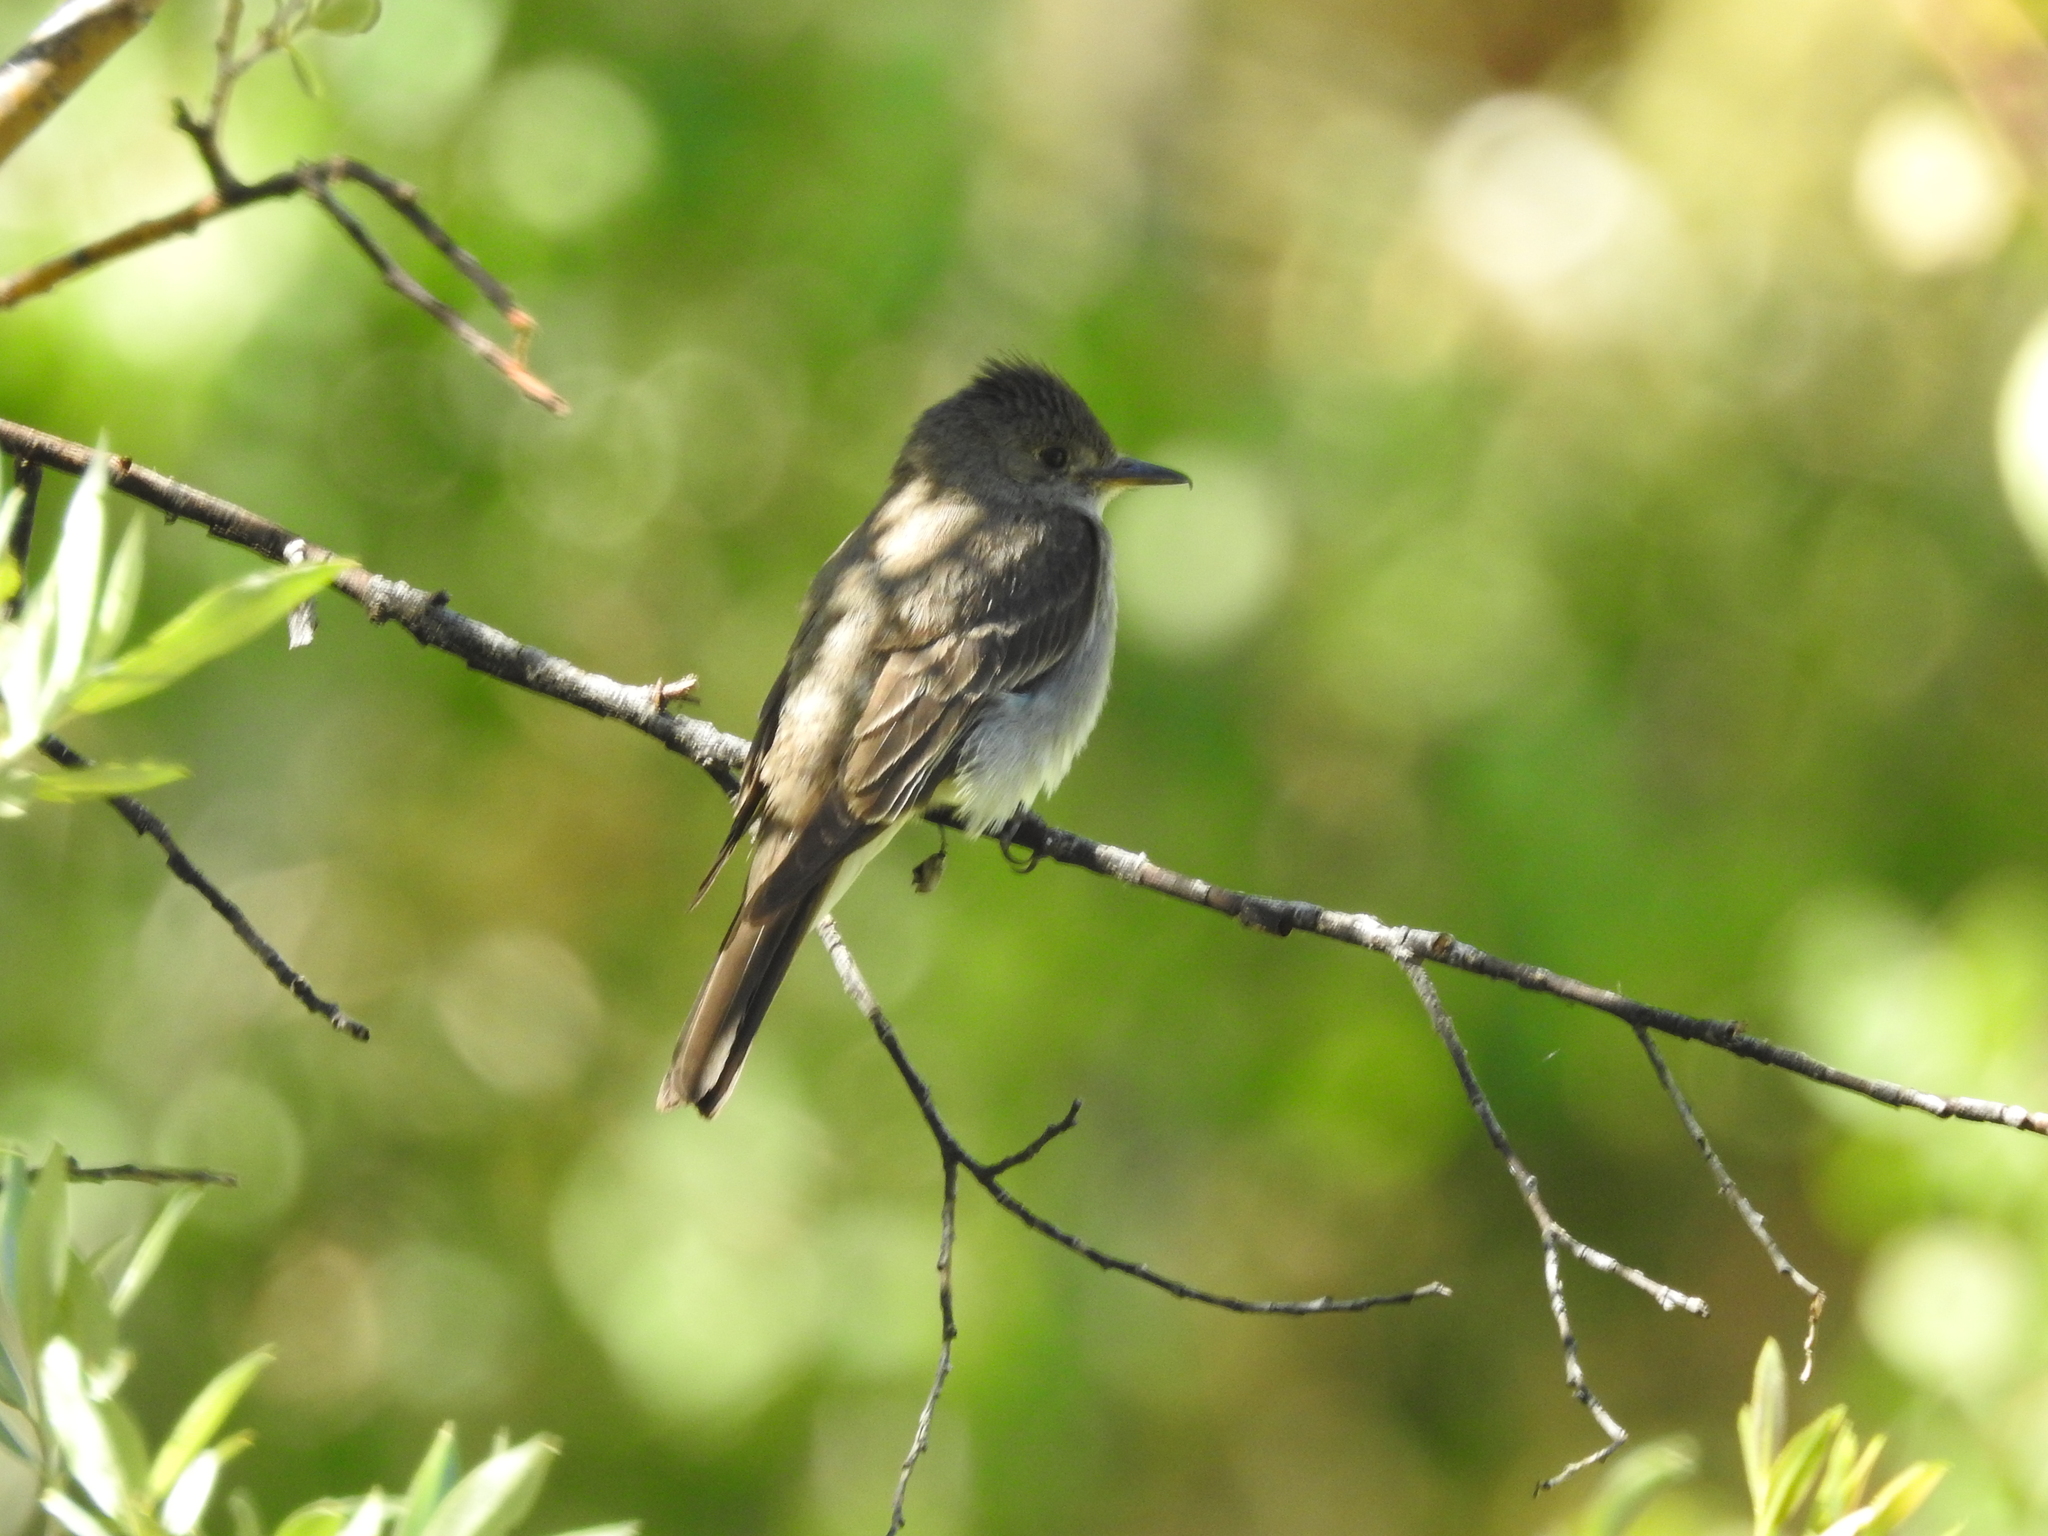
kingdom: Animalia
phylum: Chordata
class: Aves
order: Passeriformes
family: Tyrannidae
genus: Contopus
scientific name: Contopus sordidulus
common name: Western wood-pewee
